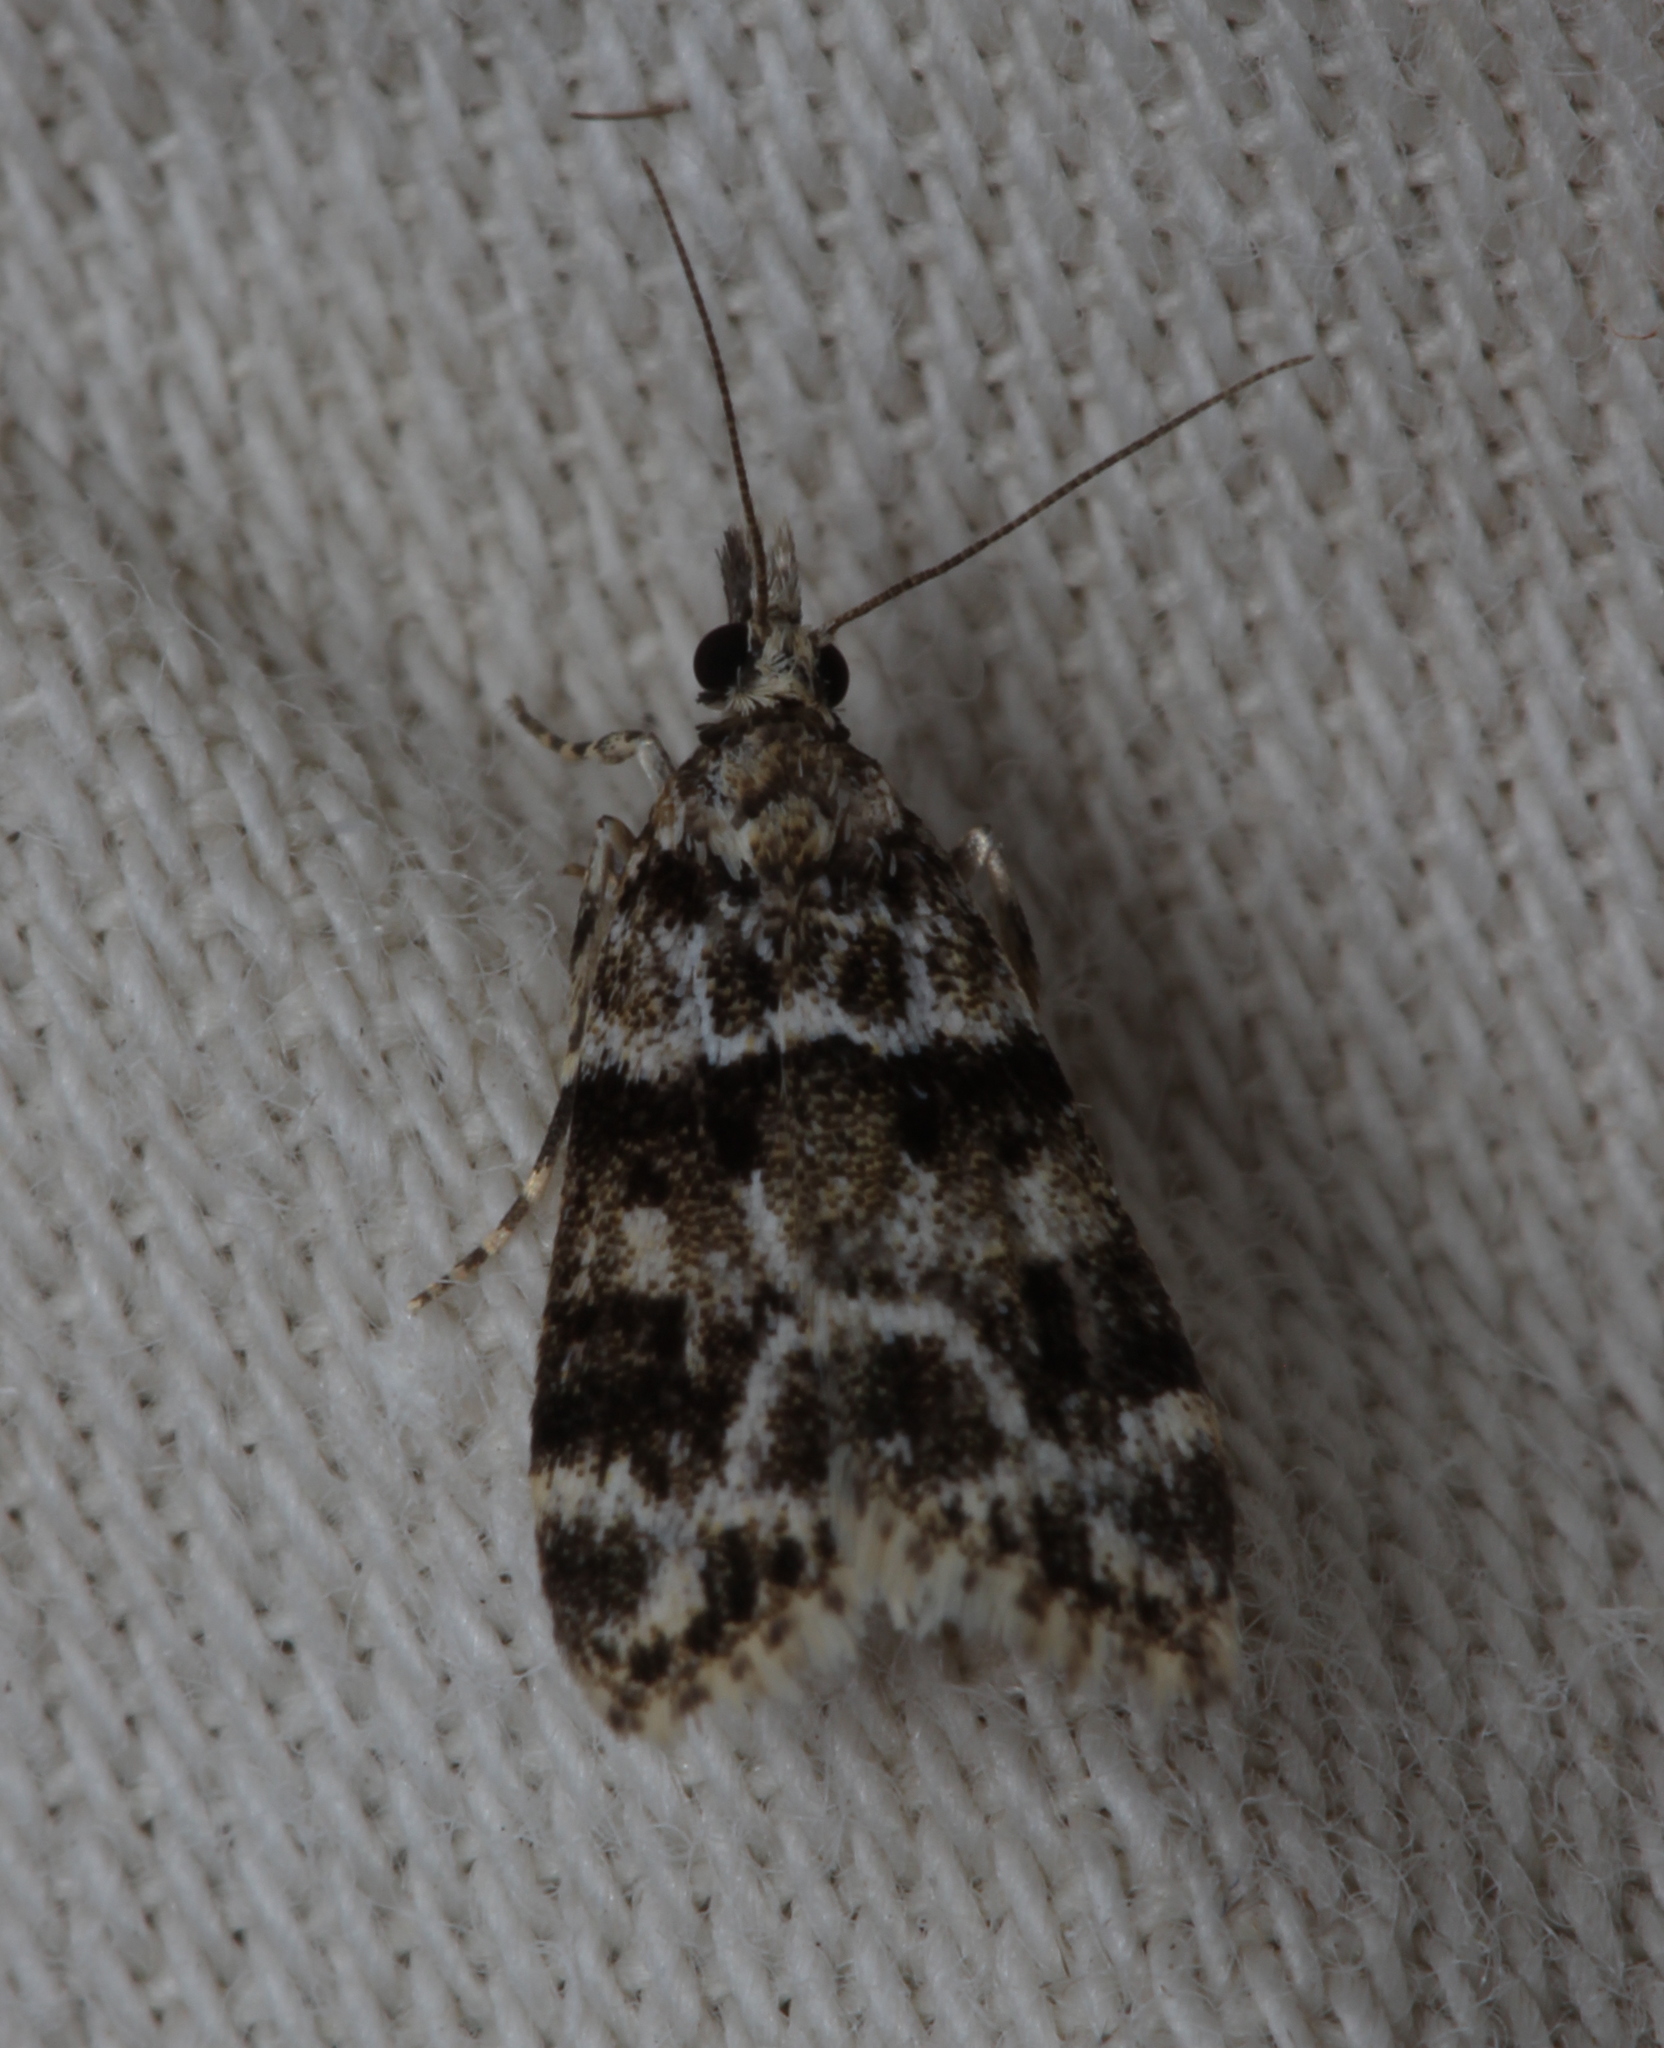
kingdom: Animalia
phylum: Arthropoda
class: Insecta
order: Lepidoptera
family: Crambidae
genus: Eudonia
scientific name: Eudonia delunella
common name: Pied grey
